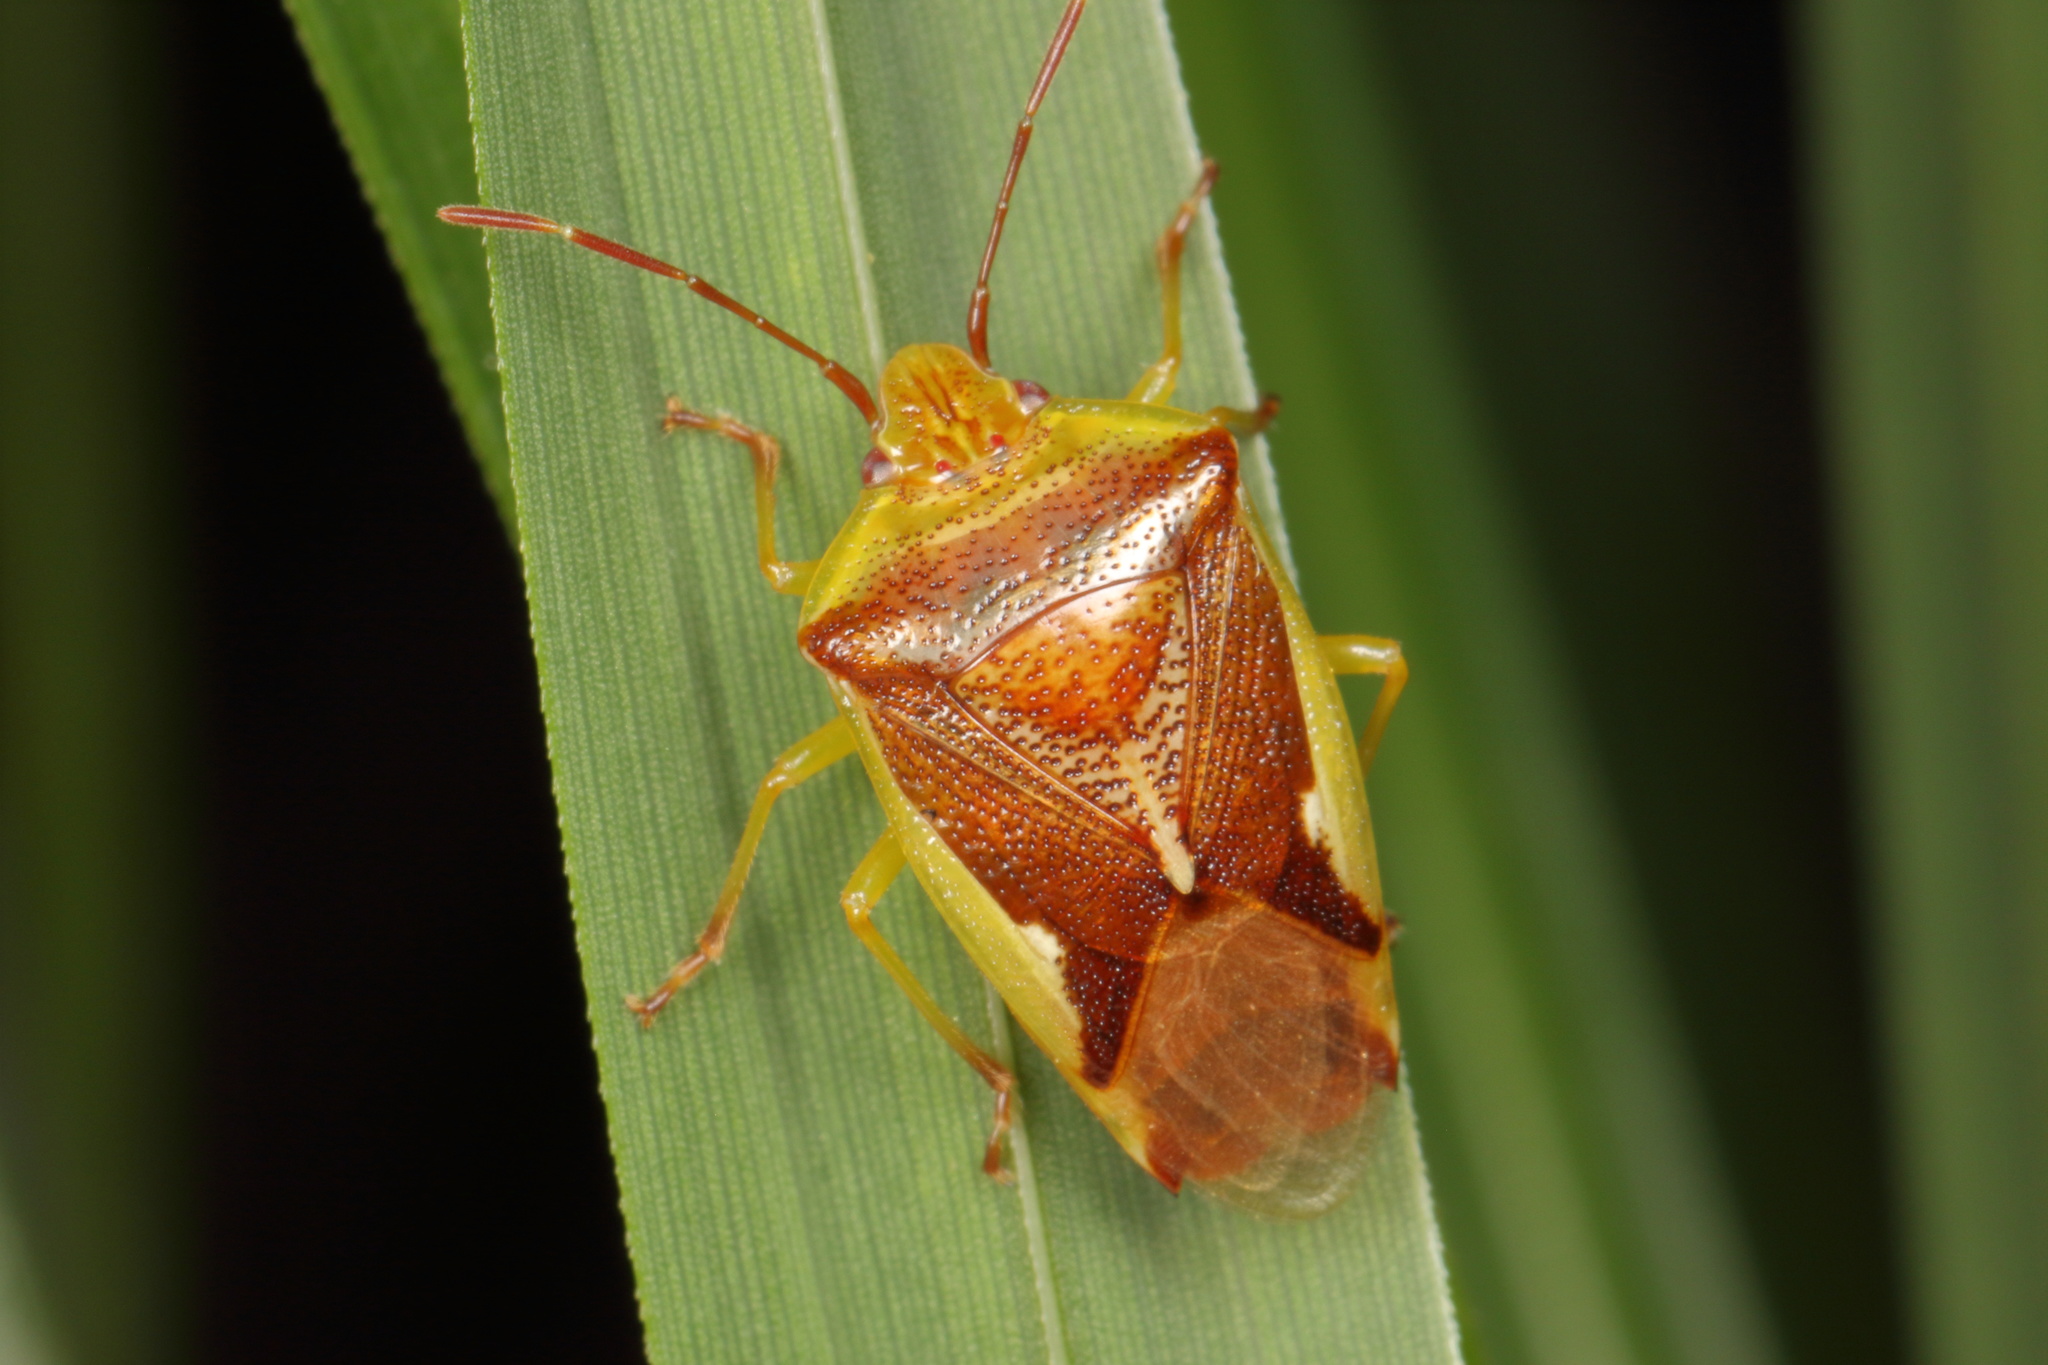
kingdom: Animalia
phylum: Arthropoda
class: Insecta
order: Hemiptera
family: Acanthosomatidae
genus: Oncacontias
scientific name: Oncacontias vittatus
